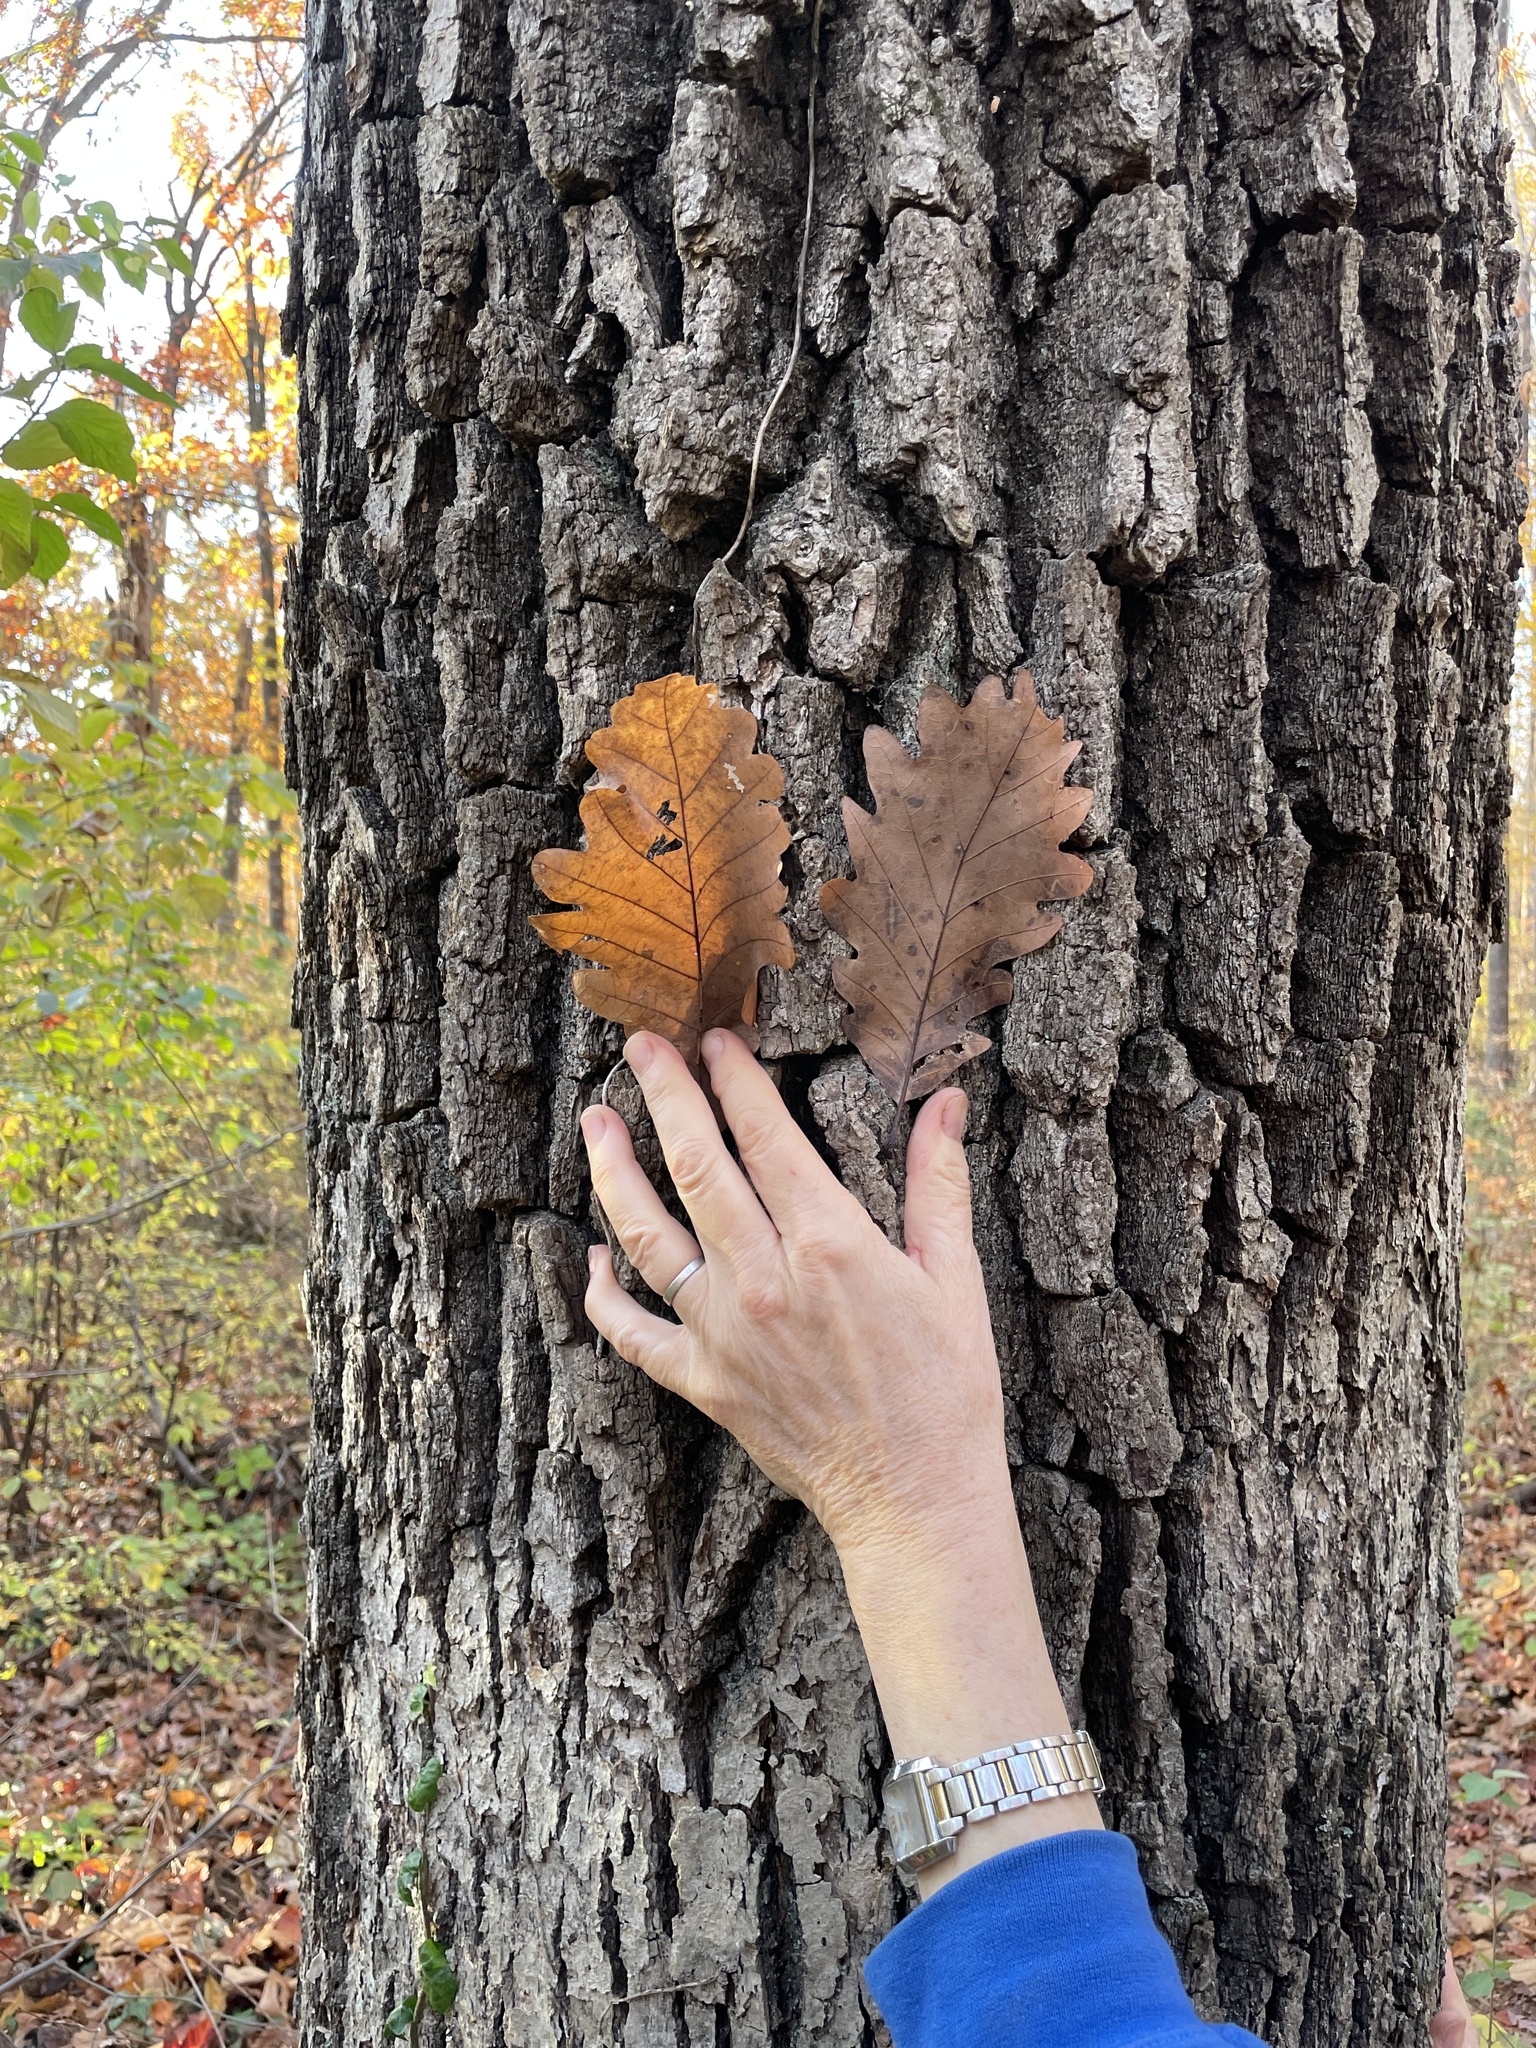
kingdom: Plantae
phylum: Tracheophyta
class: Magnoliopsida
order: Fagales
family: Fagaceae
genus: Quercus
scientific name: Quercus montana
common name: Chestnut oak
